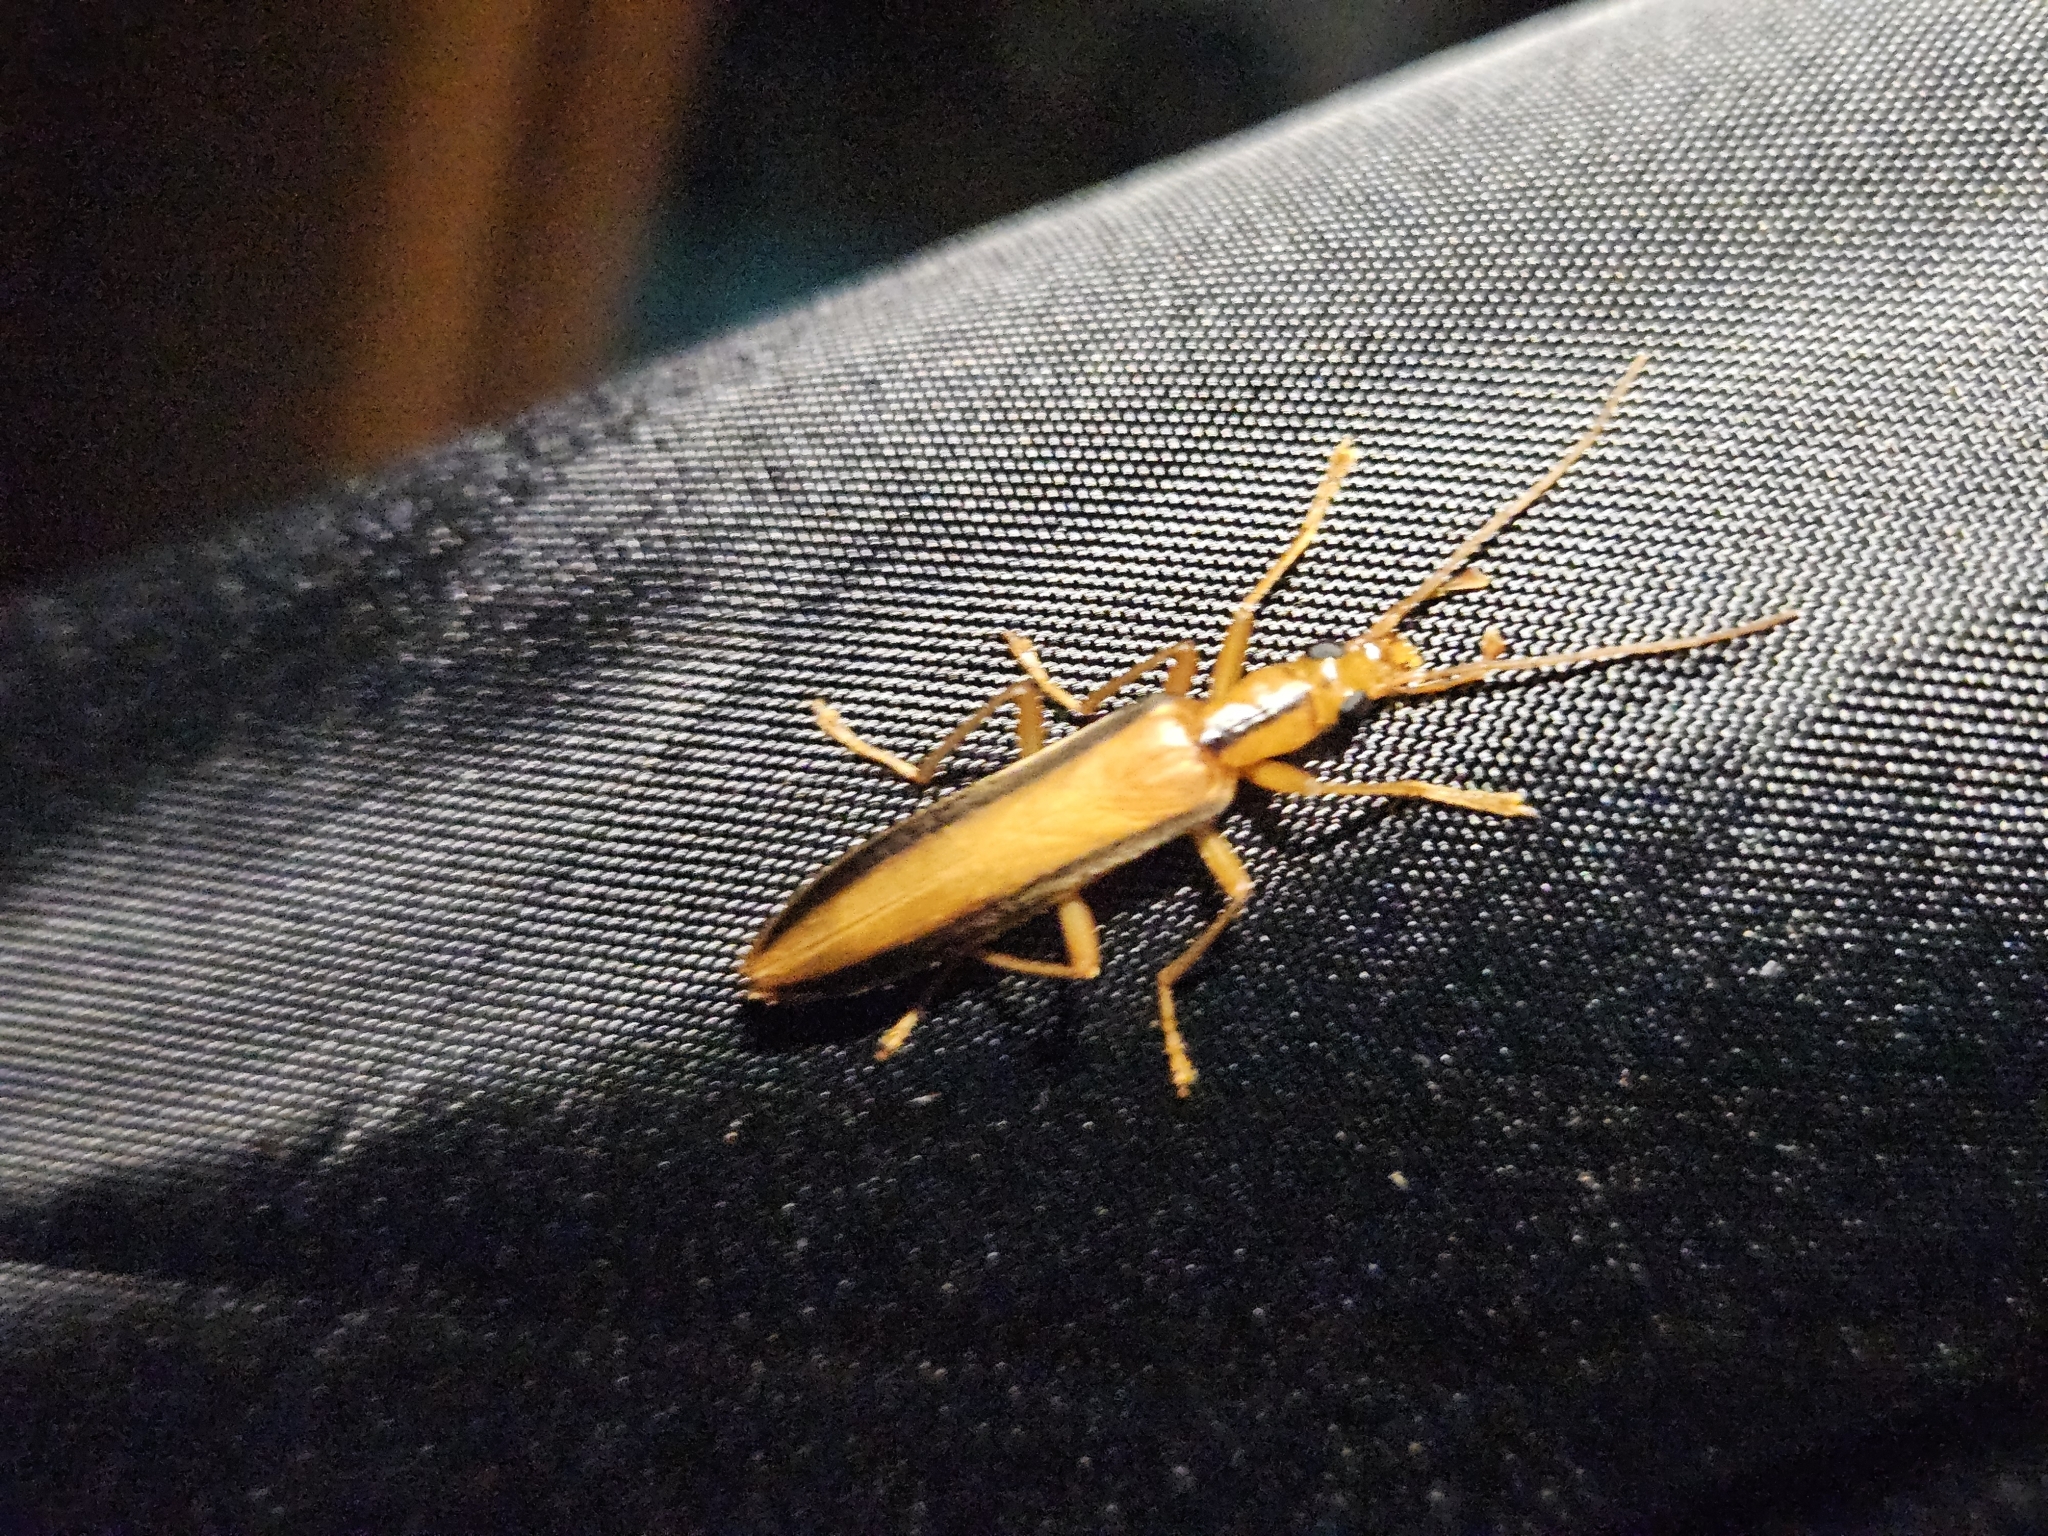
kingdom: Animalia
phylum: Arthropoda
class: Insecta
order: Coleoptera
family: Oedemeridae
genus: Thelyphassa
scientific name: Thelyphassa
